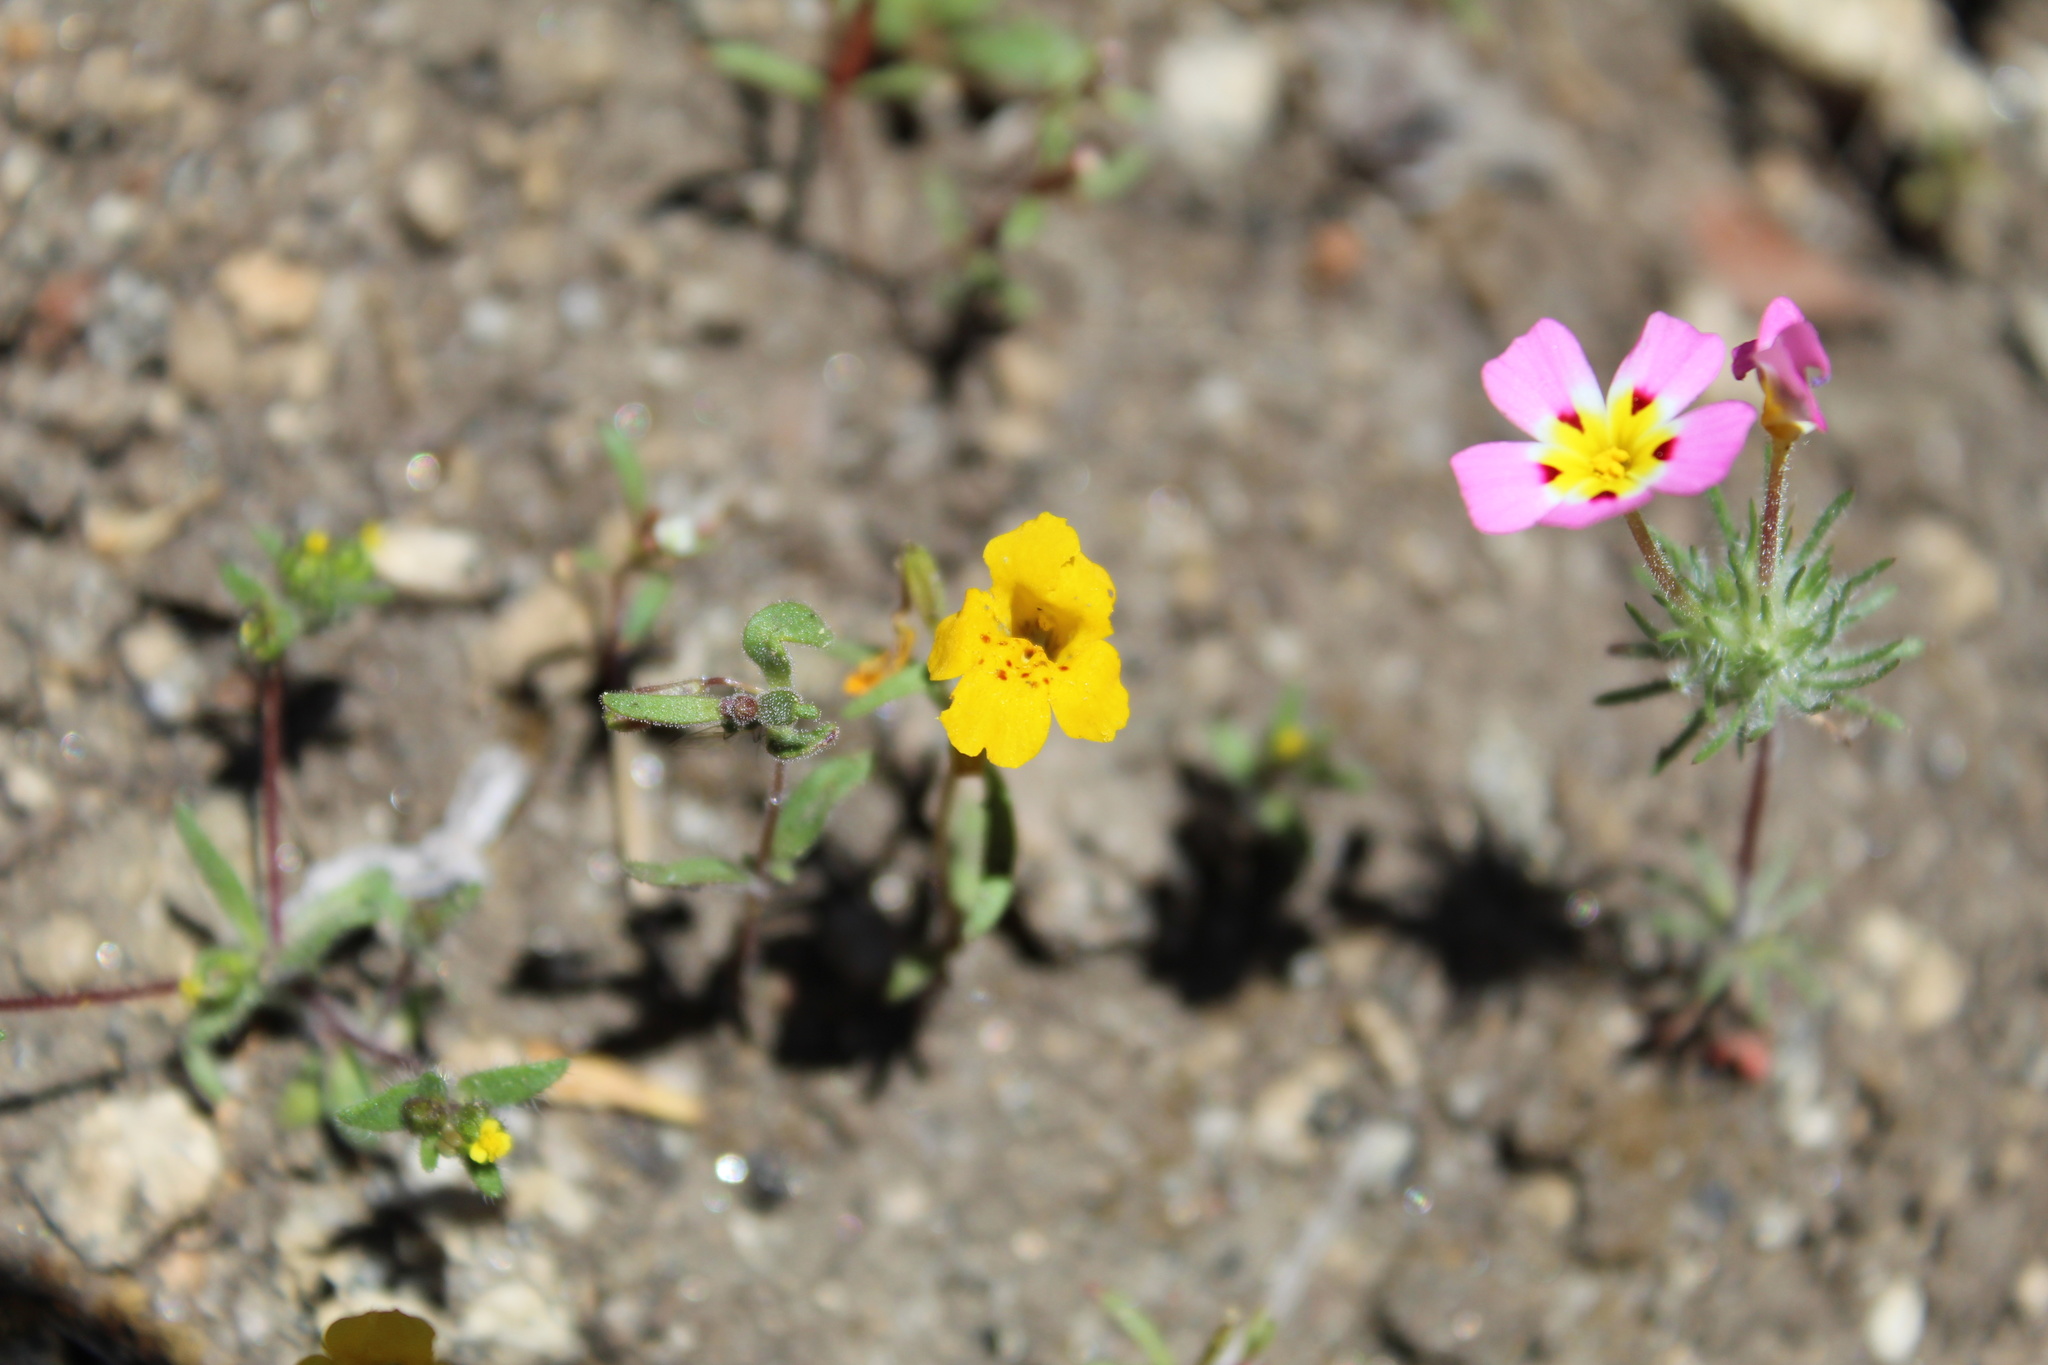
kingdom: Plantae
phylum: Tracheophyta
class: Magnoliopsida
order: Lamiales
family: Phrymaceae
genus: Erythranthe
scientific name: Erythranthe montioides
